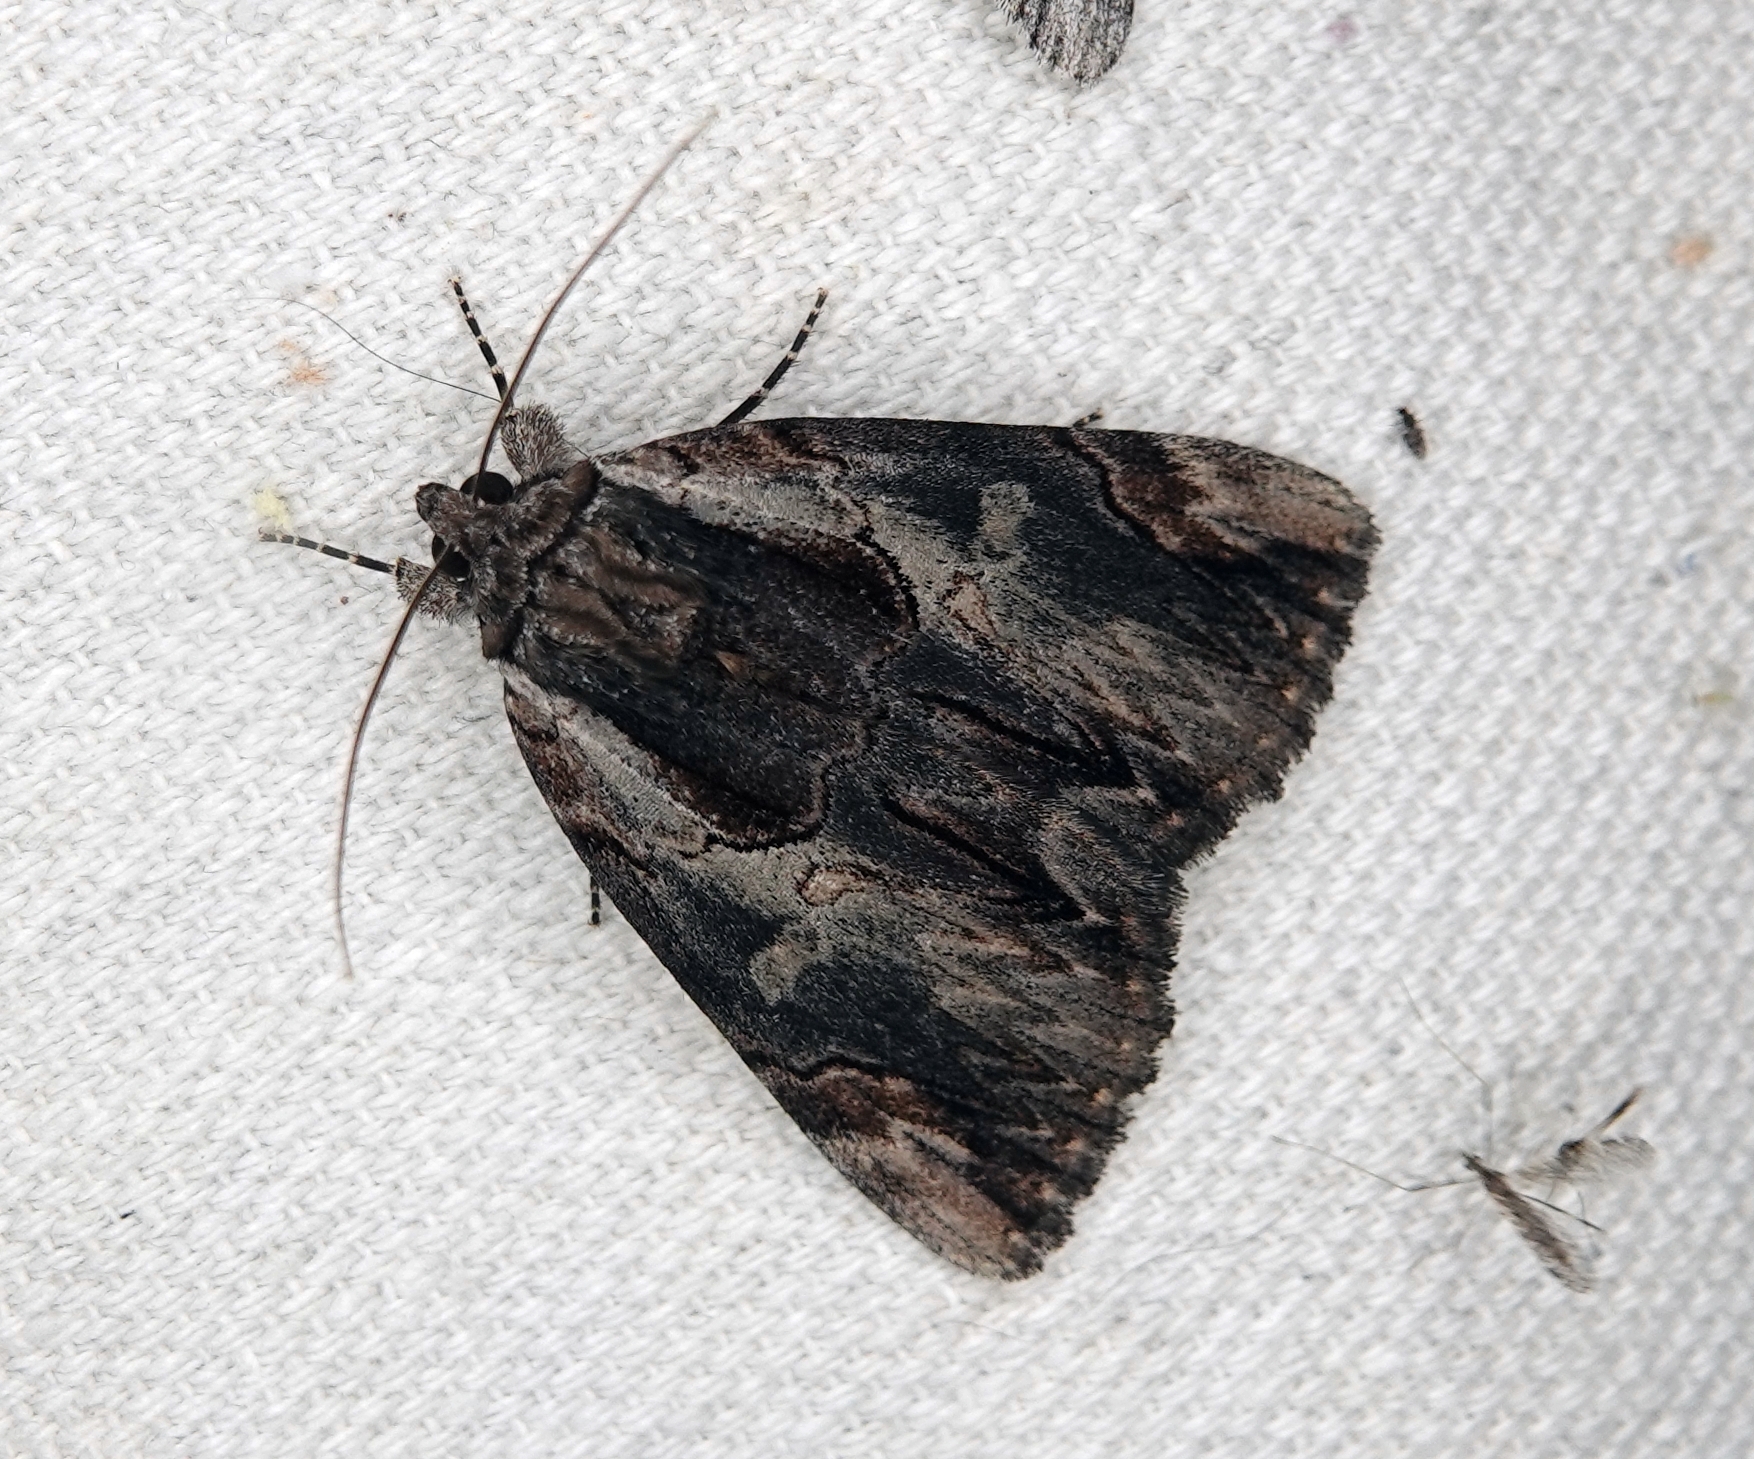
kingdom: Animalia
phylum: Arthropoda
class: Insecta
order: Lepidoptera
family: Erebidae
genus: Catocala
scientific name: Catocala ultronia
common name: Ultronia underwing
